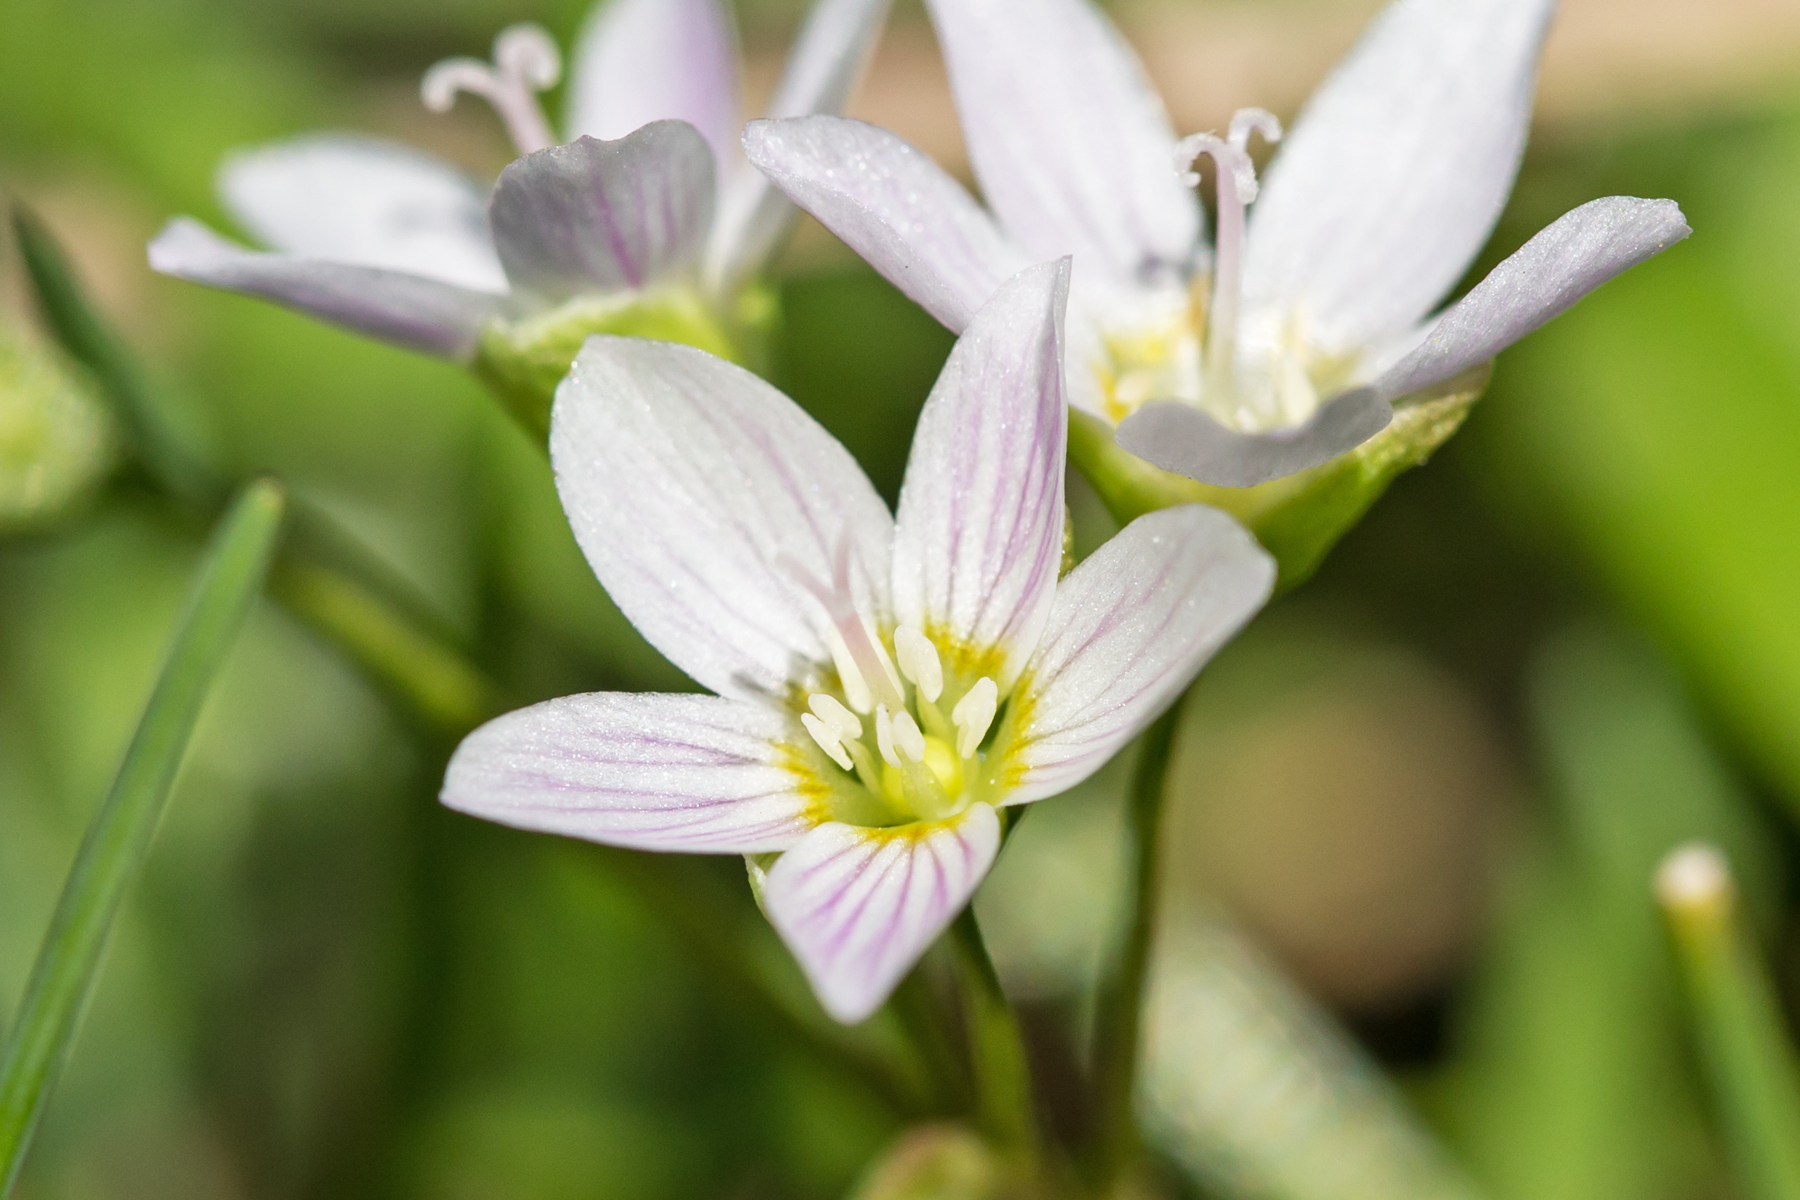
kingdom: Plantae
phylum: Tracheophyta
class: Magnoliopsida
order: Caryophyllales
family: Montiaceae
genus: Claytonia
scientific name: Claytonia virginica
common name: Virginia springbeauty
